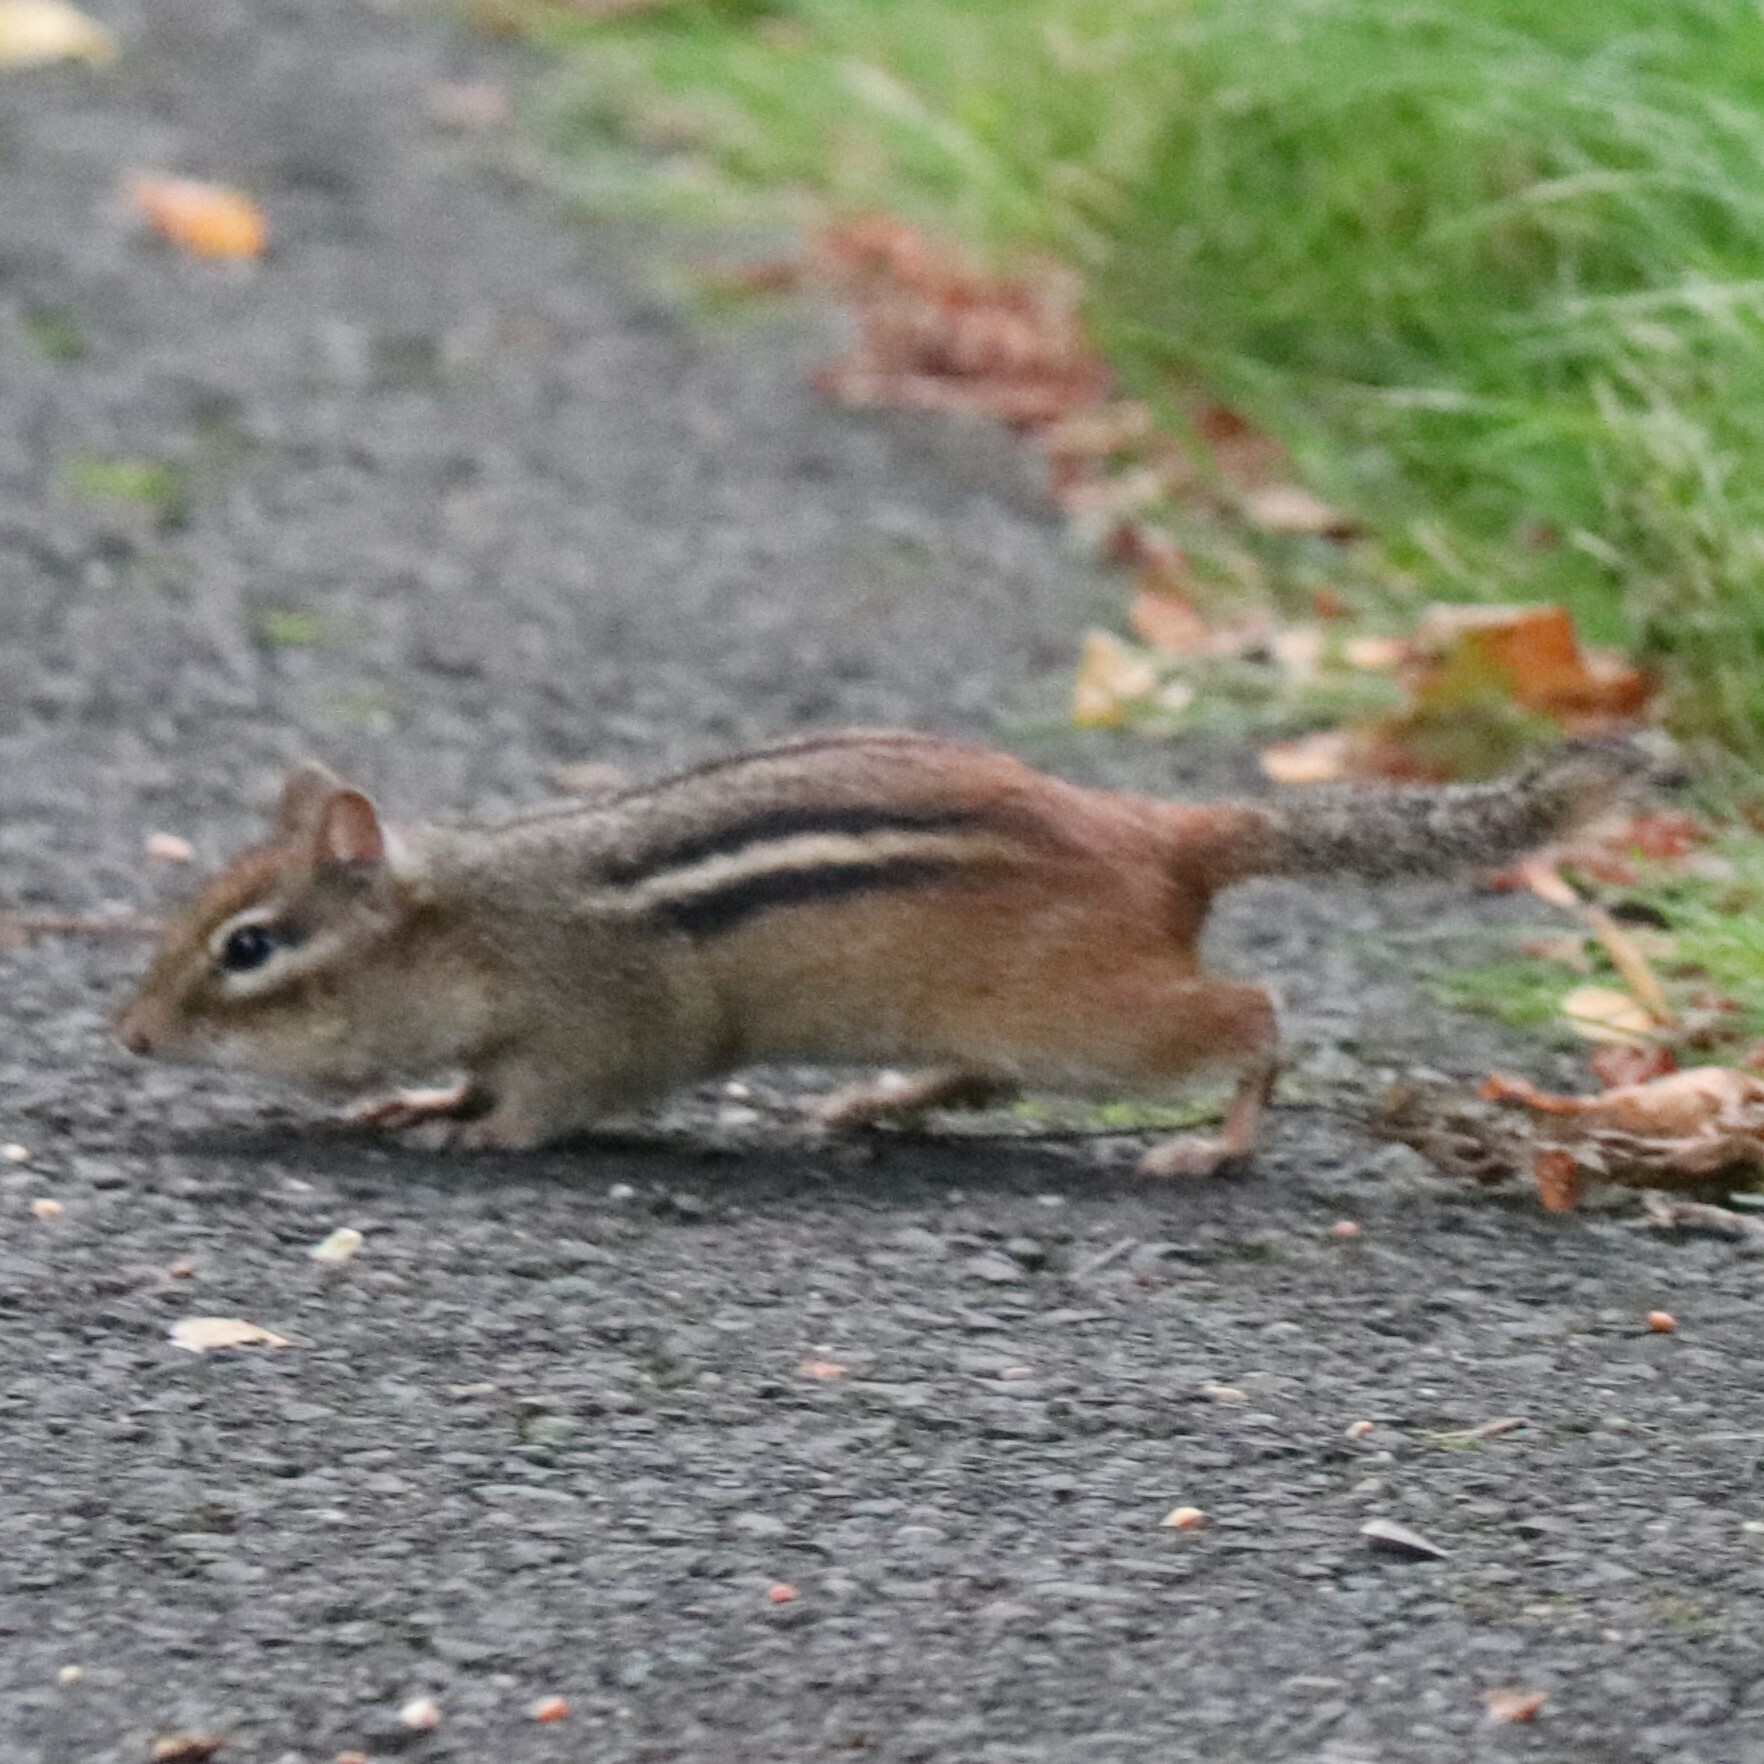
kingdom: Animalia
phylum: Chordata
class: Mammalia
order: Rodentia
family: Sciuridae
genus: Tamias
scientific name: Tamias striatus
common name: Eastern chipmunk
